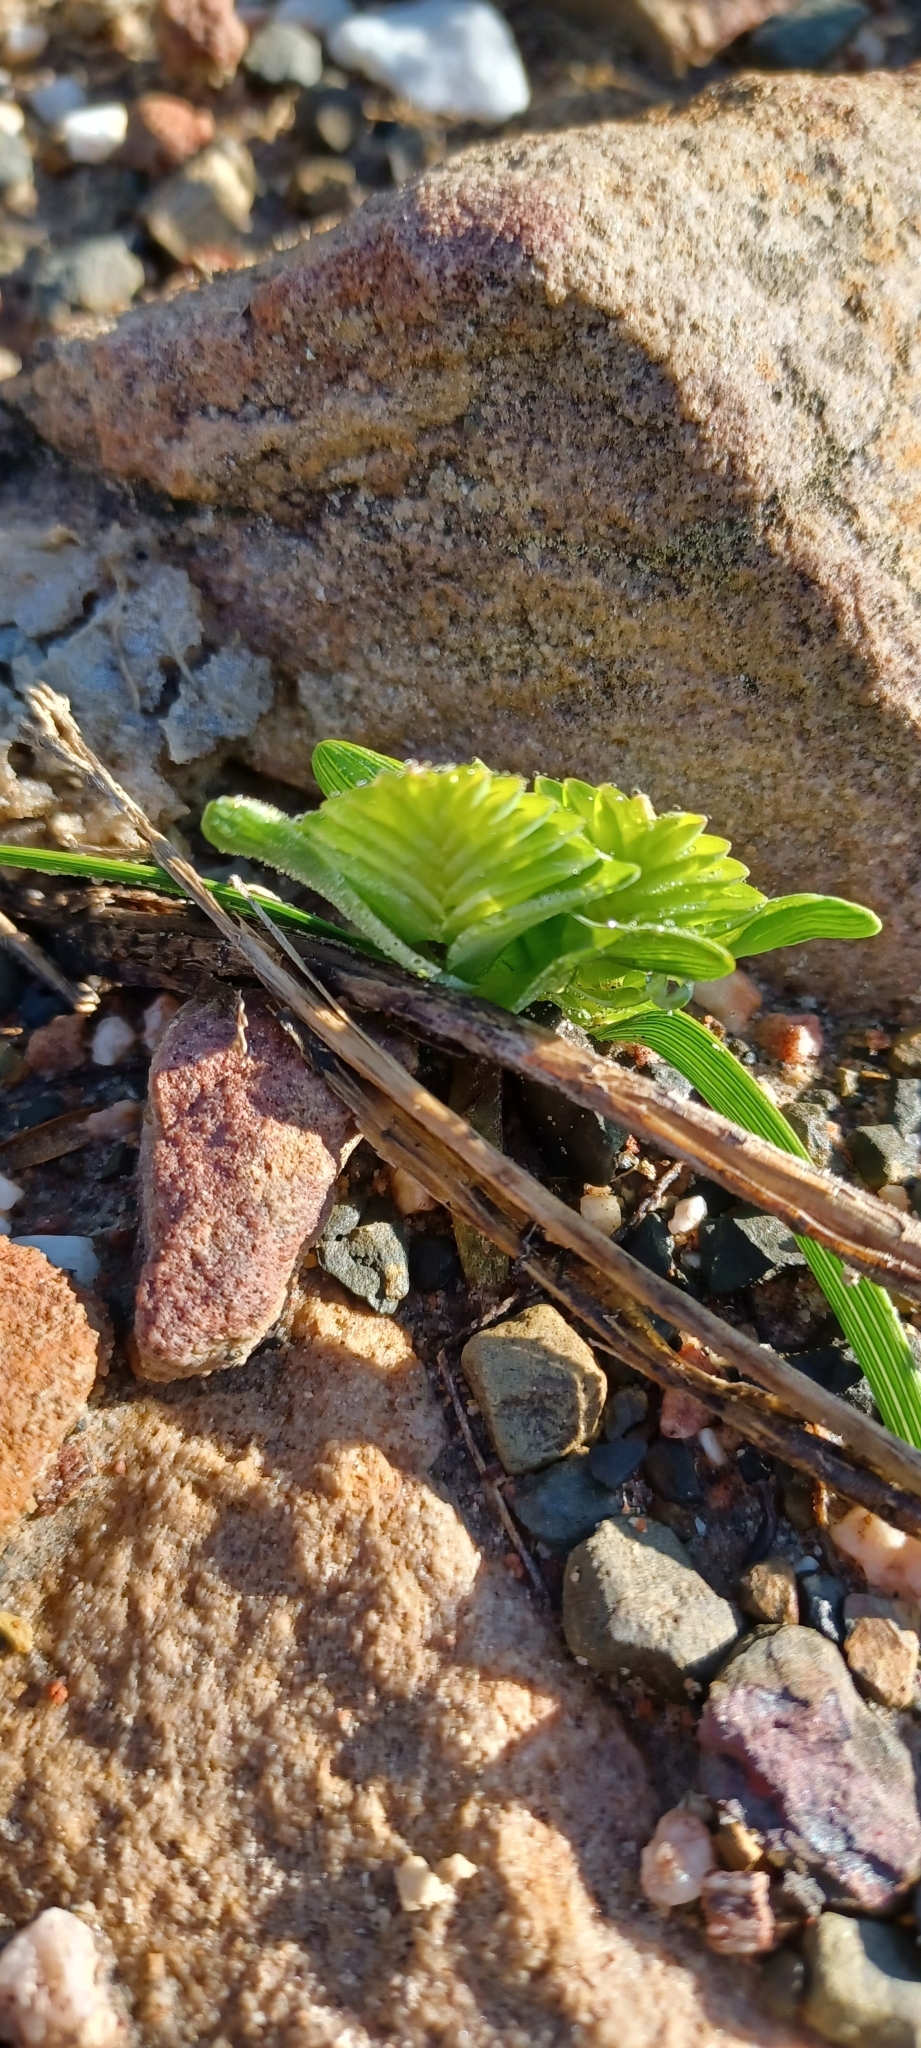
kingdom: Plantae
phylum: Tracheophyta
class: Liliopsida
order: Asparagales
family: Iridaceae
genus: Lapeirousia
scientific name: Lapeirousia pyramidalis
